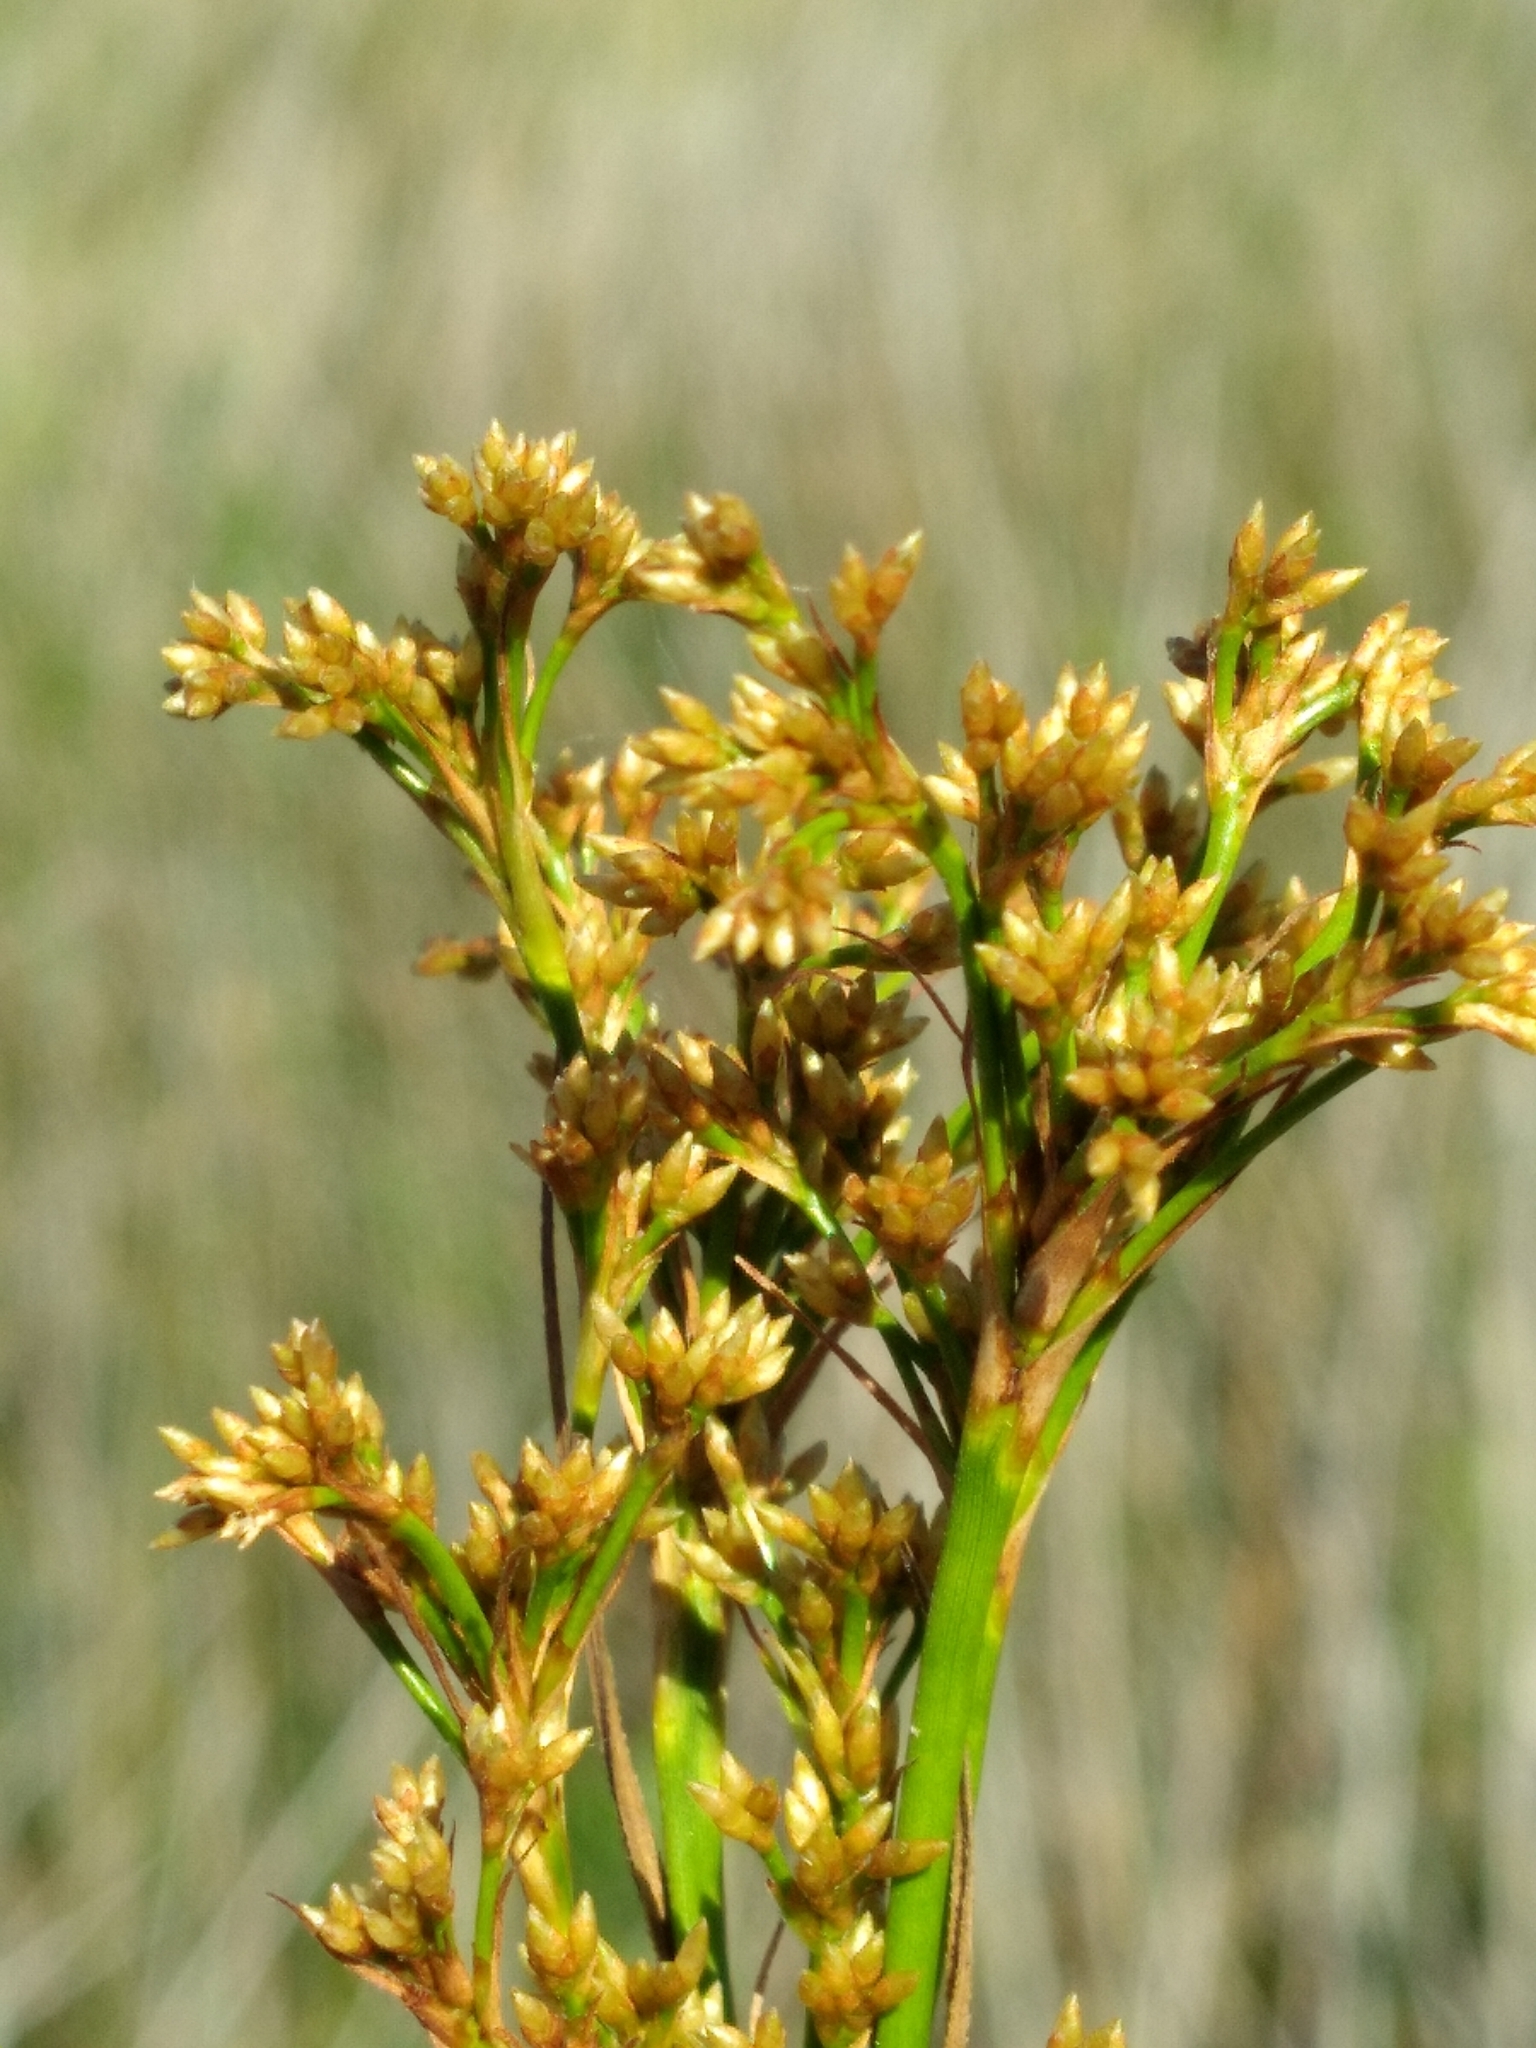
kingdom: Plantae
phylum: Tracheophyta
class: Liliopsida
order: Poales
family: Cyperaceae
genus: Cladium
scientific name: Cladium mariscus
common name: Great fen-sedge
